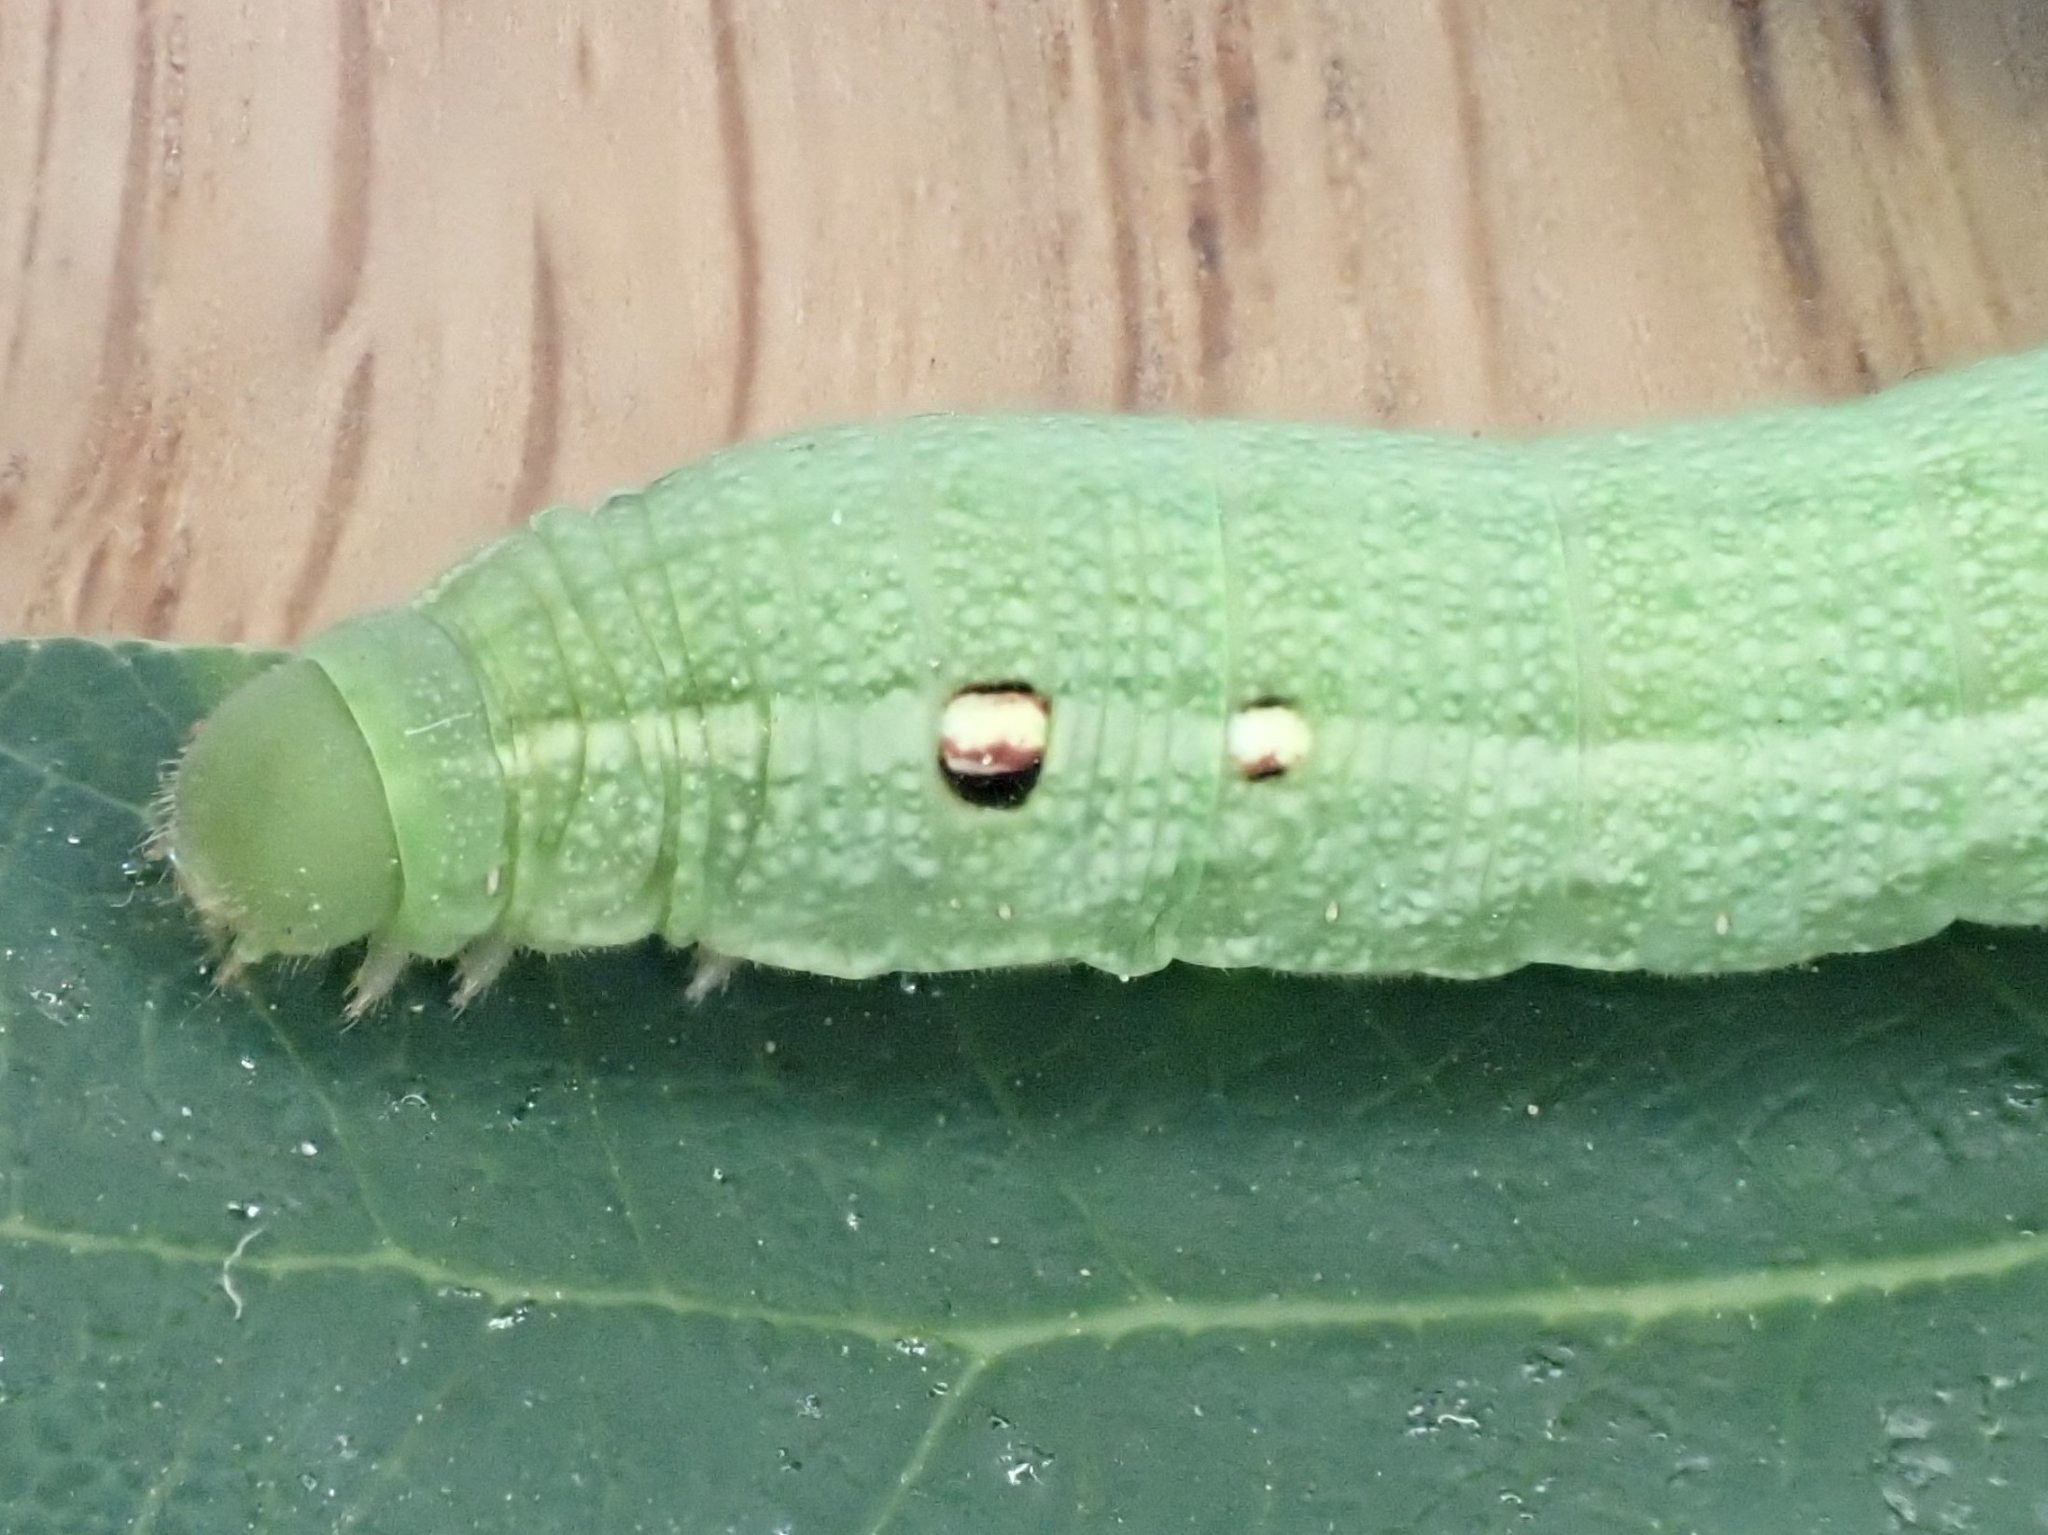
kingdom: Animalia
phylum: Arthropoda
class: Insecta
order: Lepidoptera
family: Sphingidae
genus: Deilephila
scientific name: Deilephila porcellus
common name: Small elephant hawk-moth
